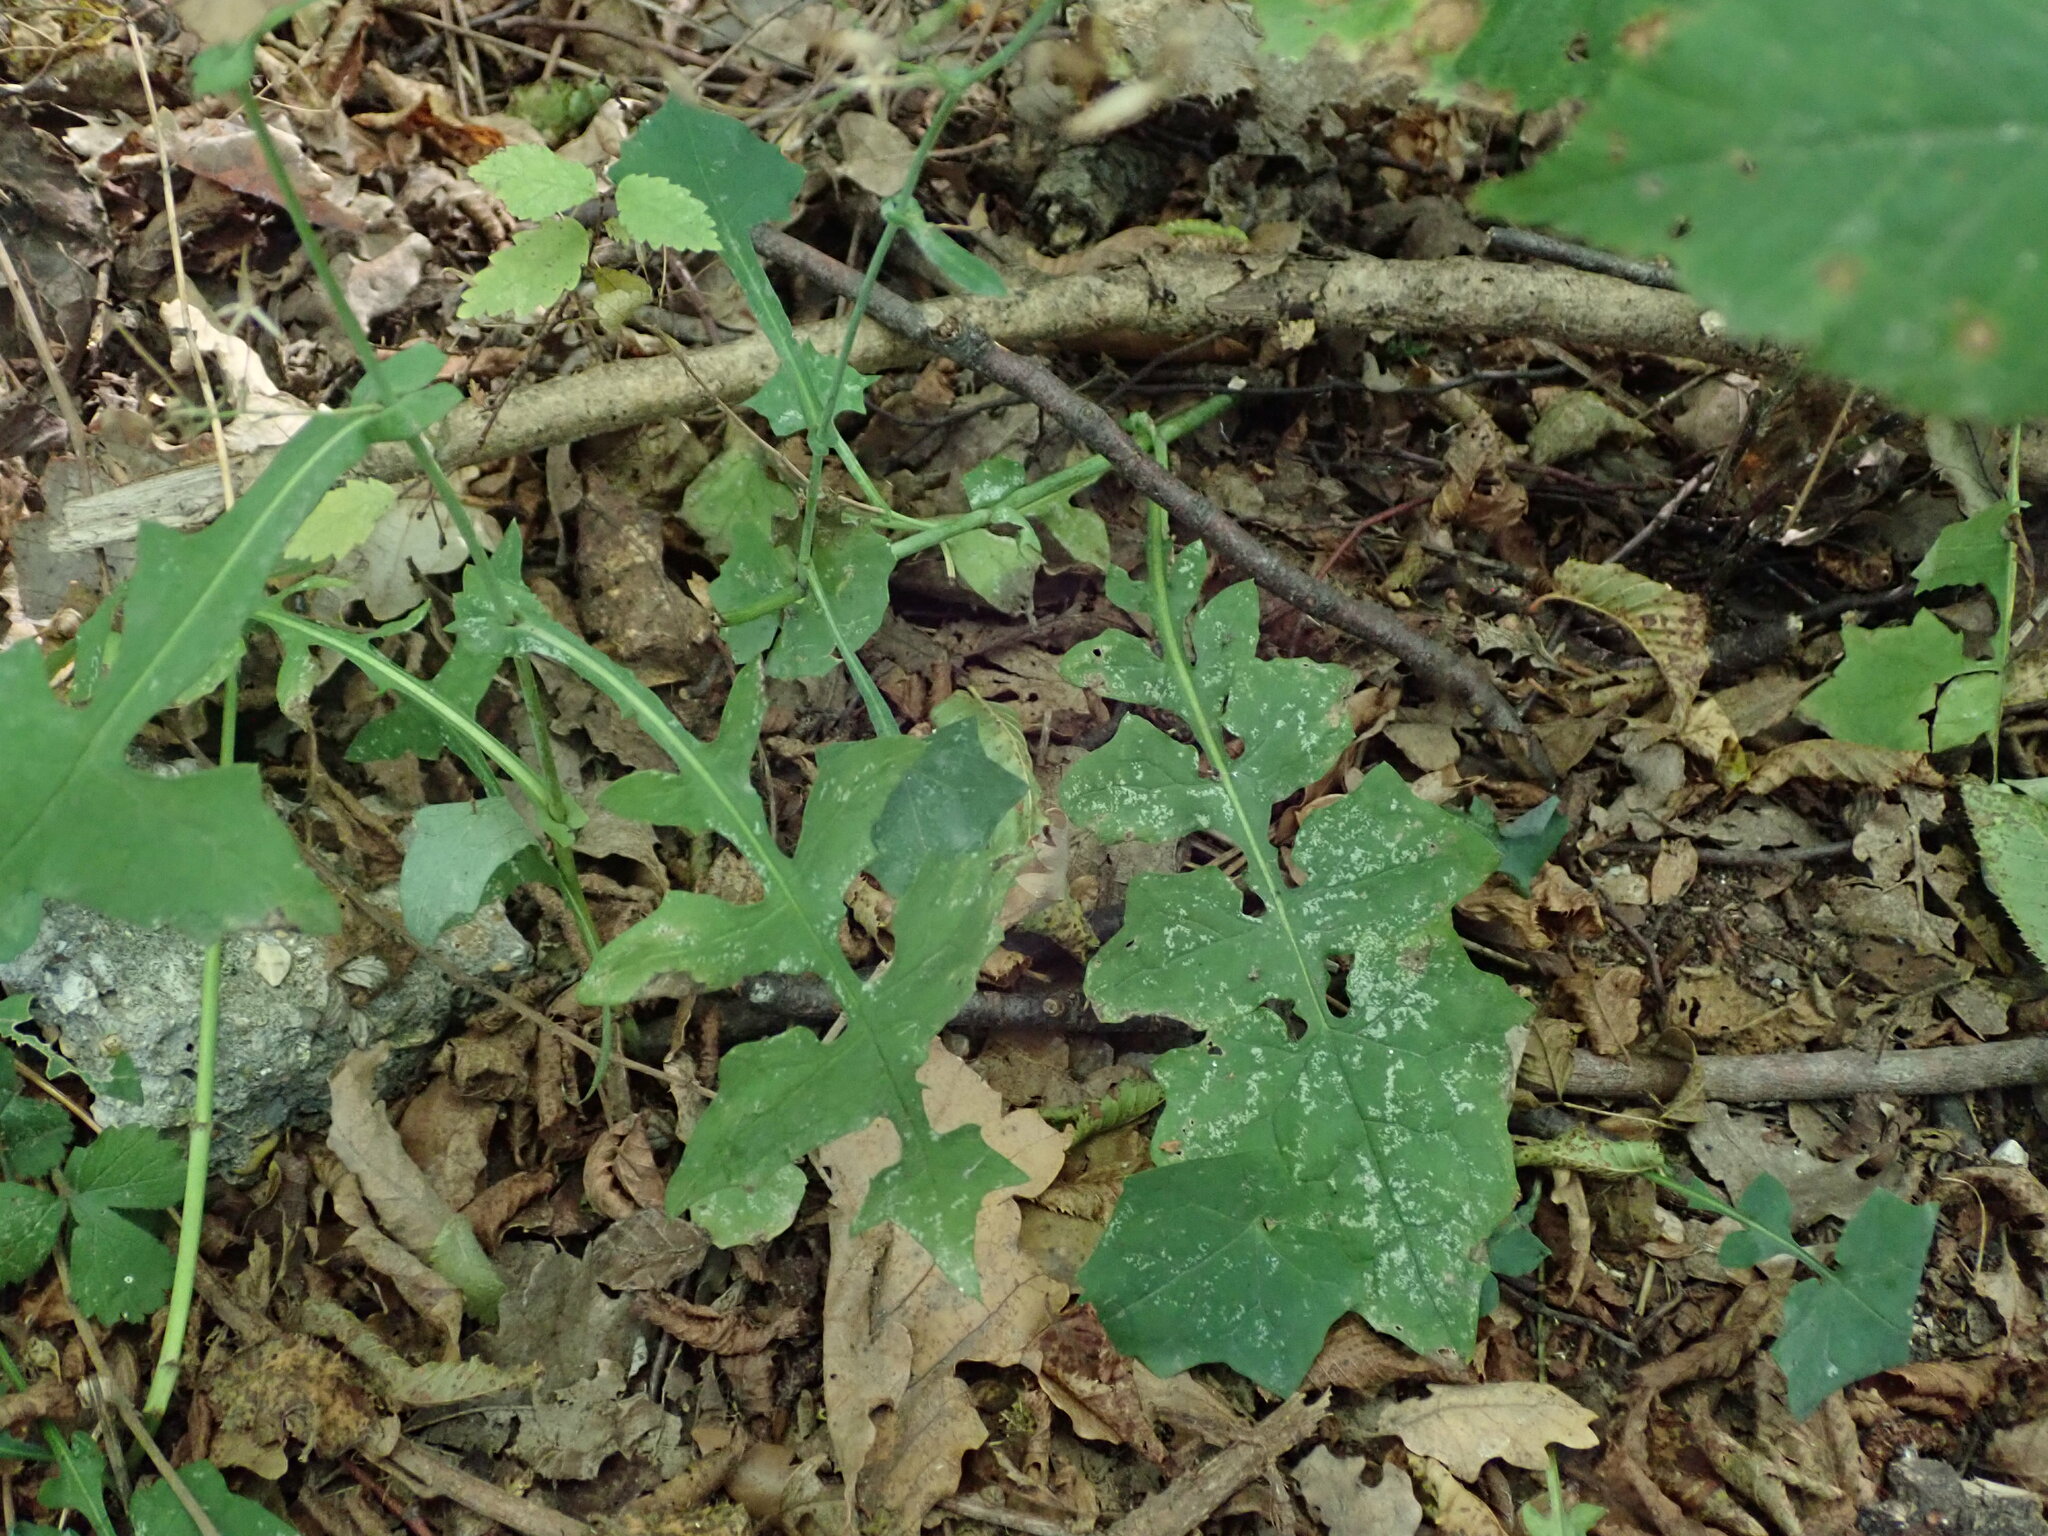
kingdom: Plantae
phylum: Tracheophyta
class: Magnoliopsida
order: Asterales
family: Asteraceae
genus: Mycelis
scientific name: Mycelis muralis
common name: Wall lettuce
